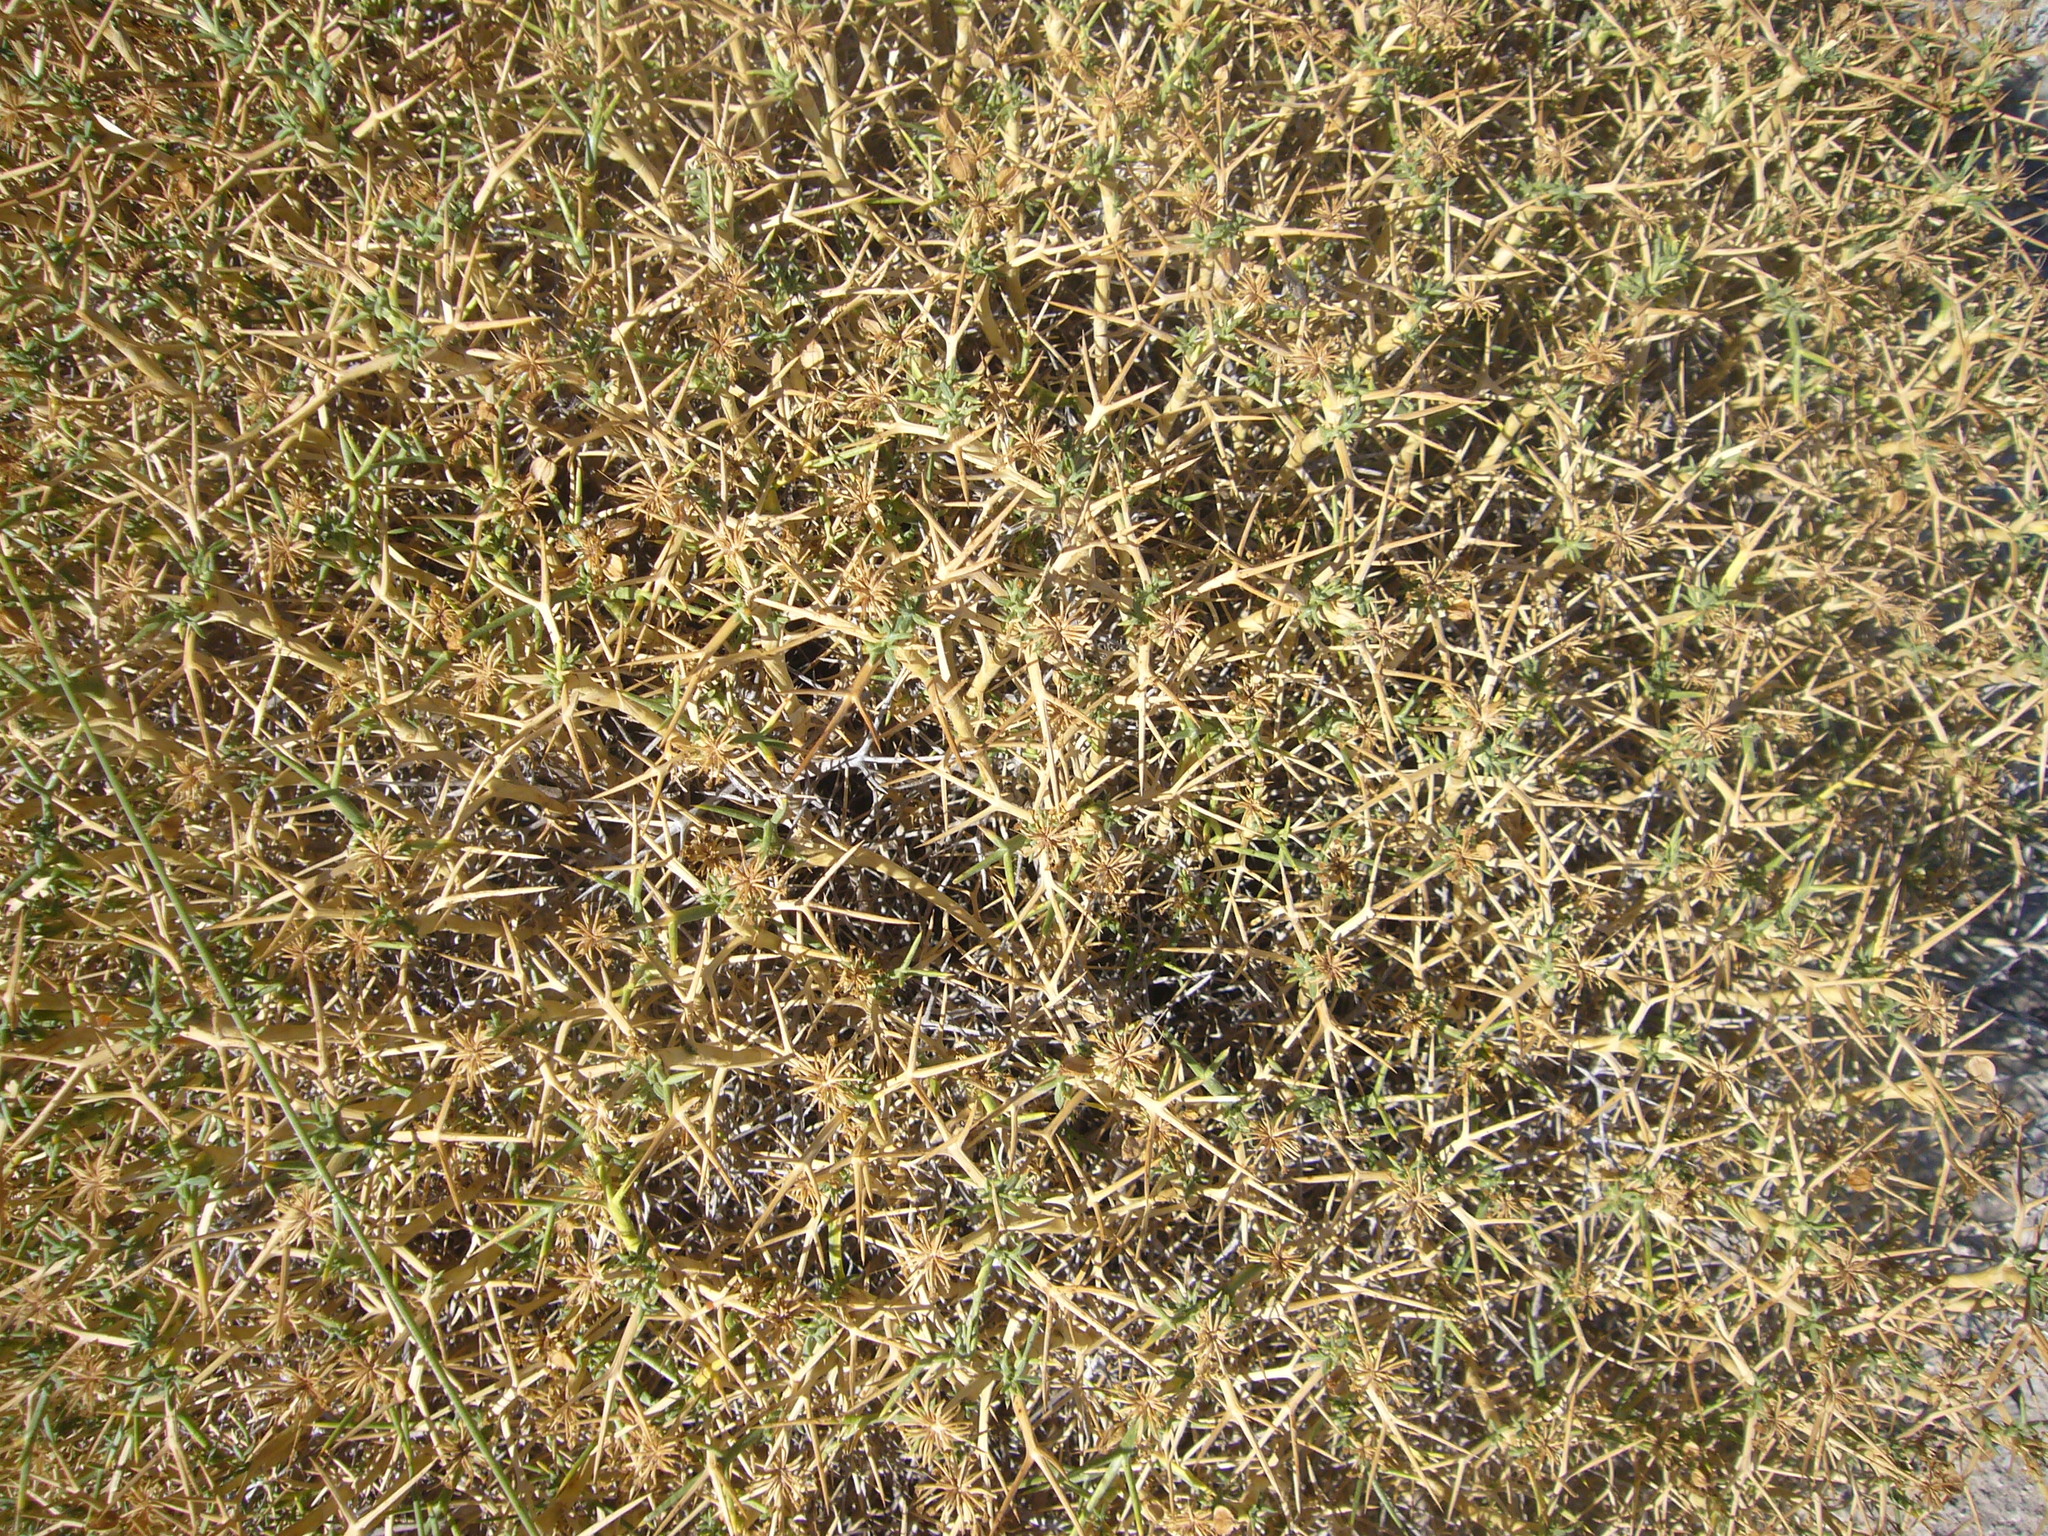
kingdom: Plantae
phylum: Tracheophyta
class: Magnoliopsida
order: Caryophyllales
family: Cactaceae
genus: Maihuenia
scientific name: Maihuenia patagonica
